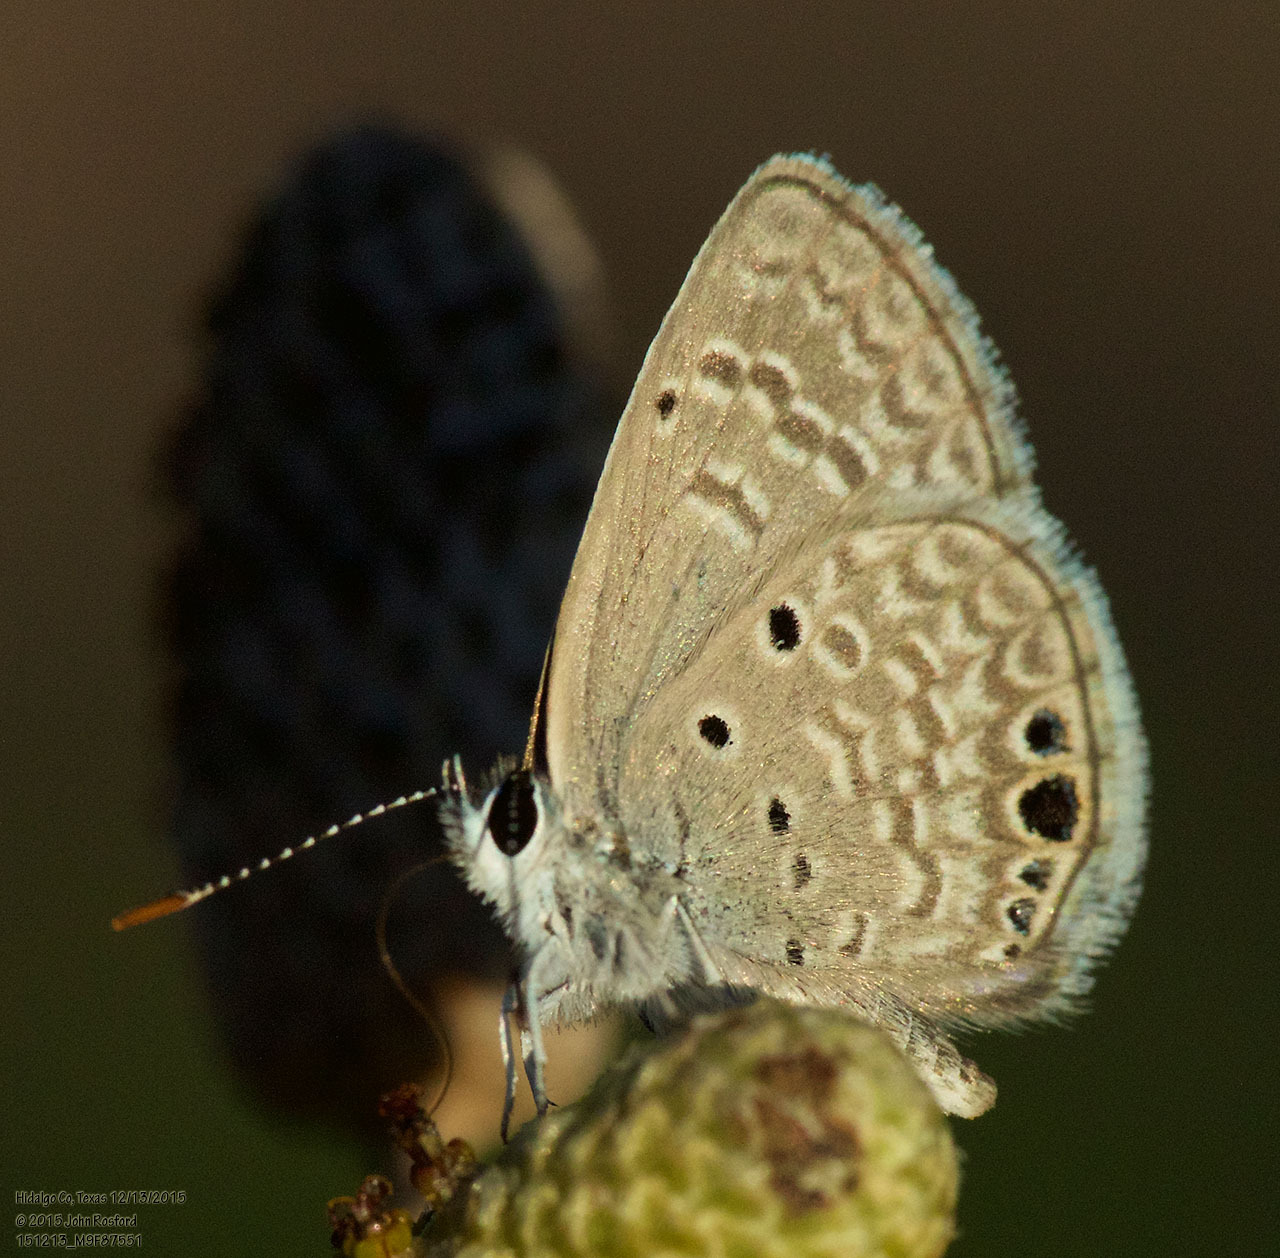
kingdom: Animalia
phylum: Arthropoda
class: Insecta
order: Lepidoptera
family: Lycaenidae
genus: Hemiargus
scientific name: Hemiargus ceraunus
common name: Ceraunus blue
